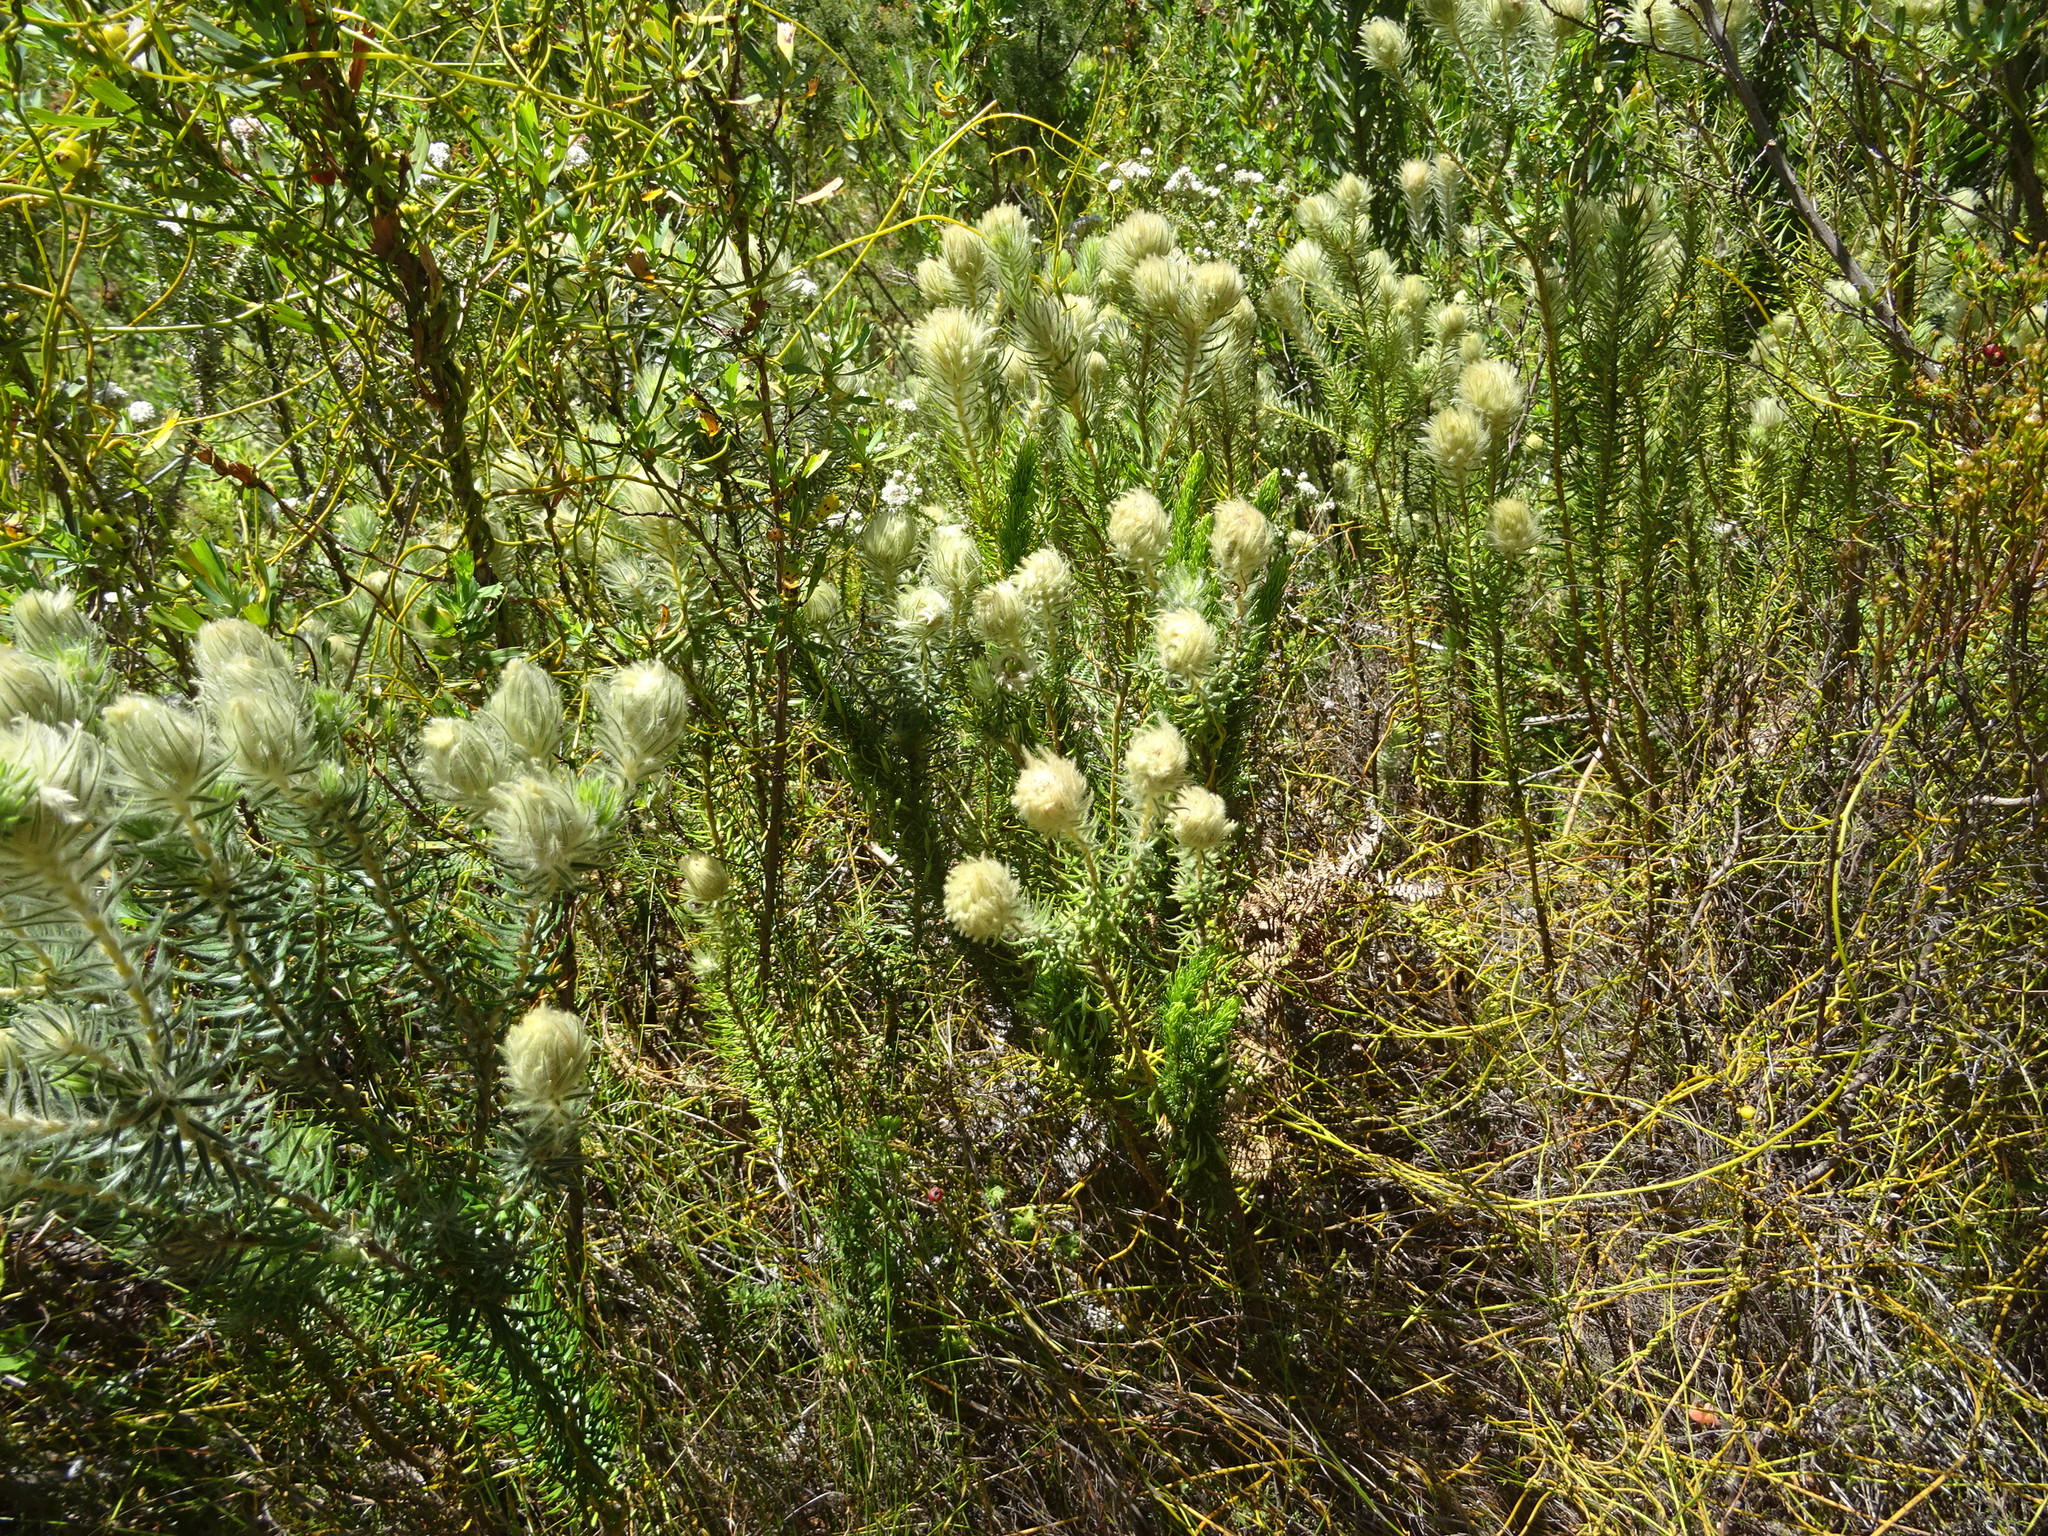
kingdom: Plantae
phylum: Tracheophyta
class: Magnoliopsida
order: Rosales
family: Rhamnaceae
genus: Phylica
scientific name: Phylica pubescens
